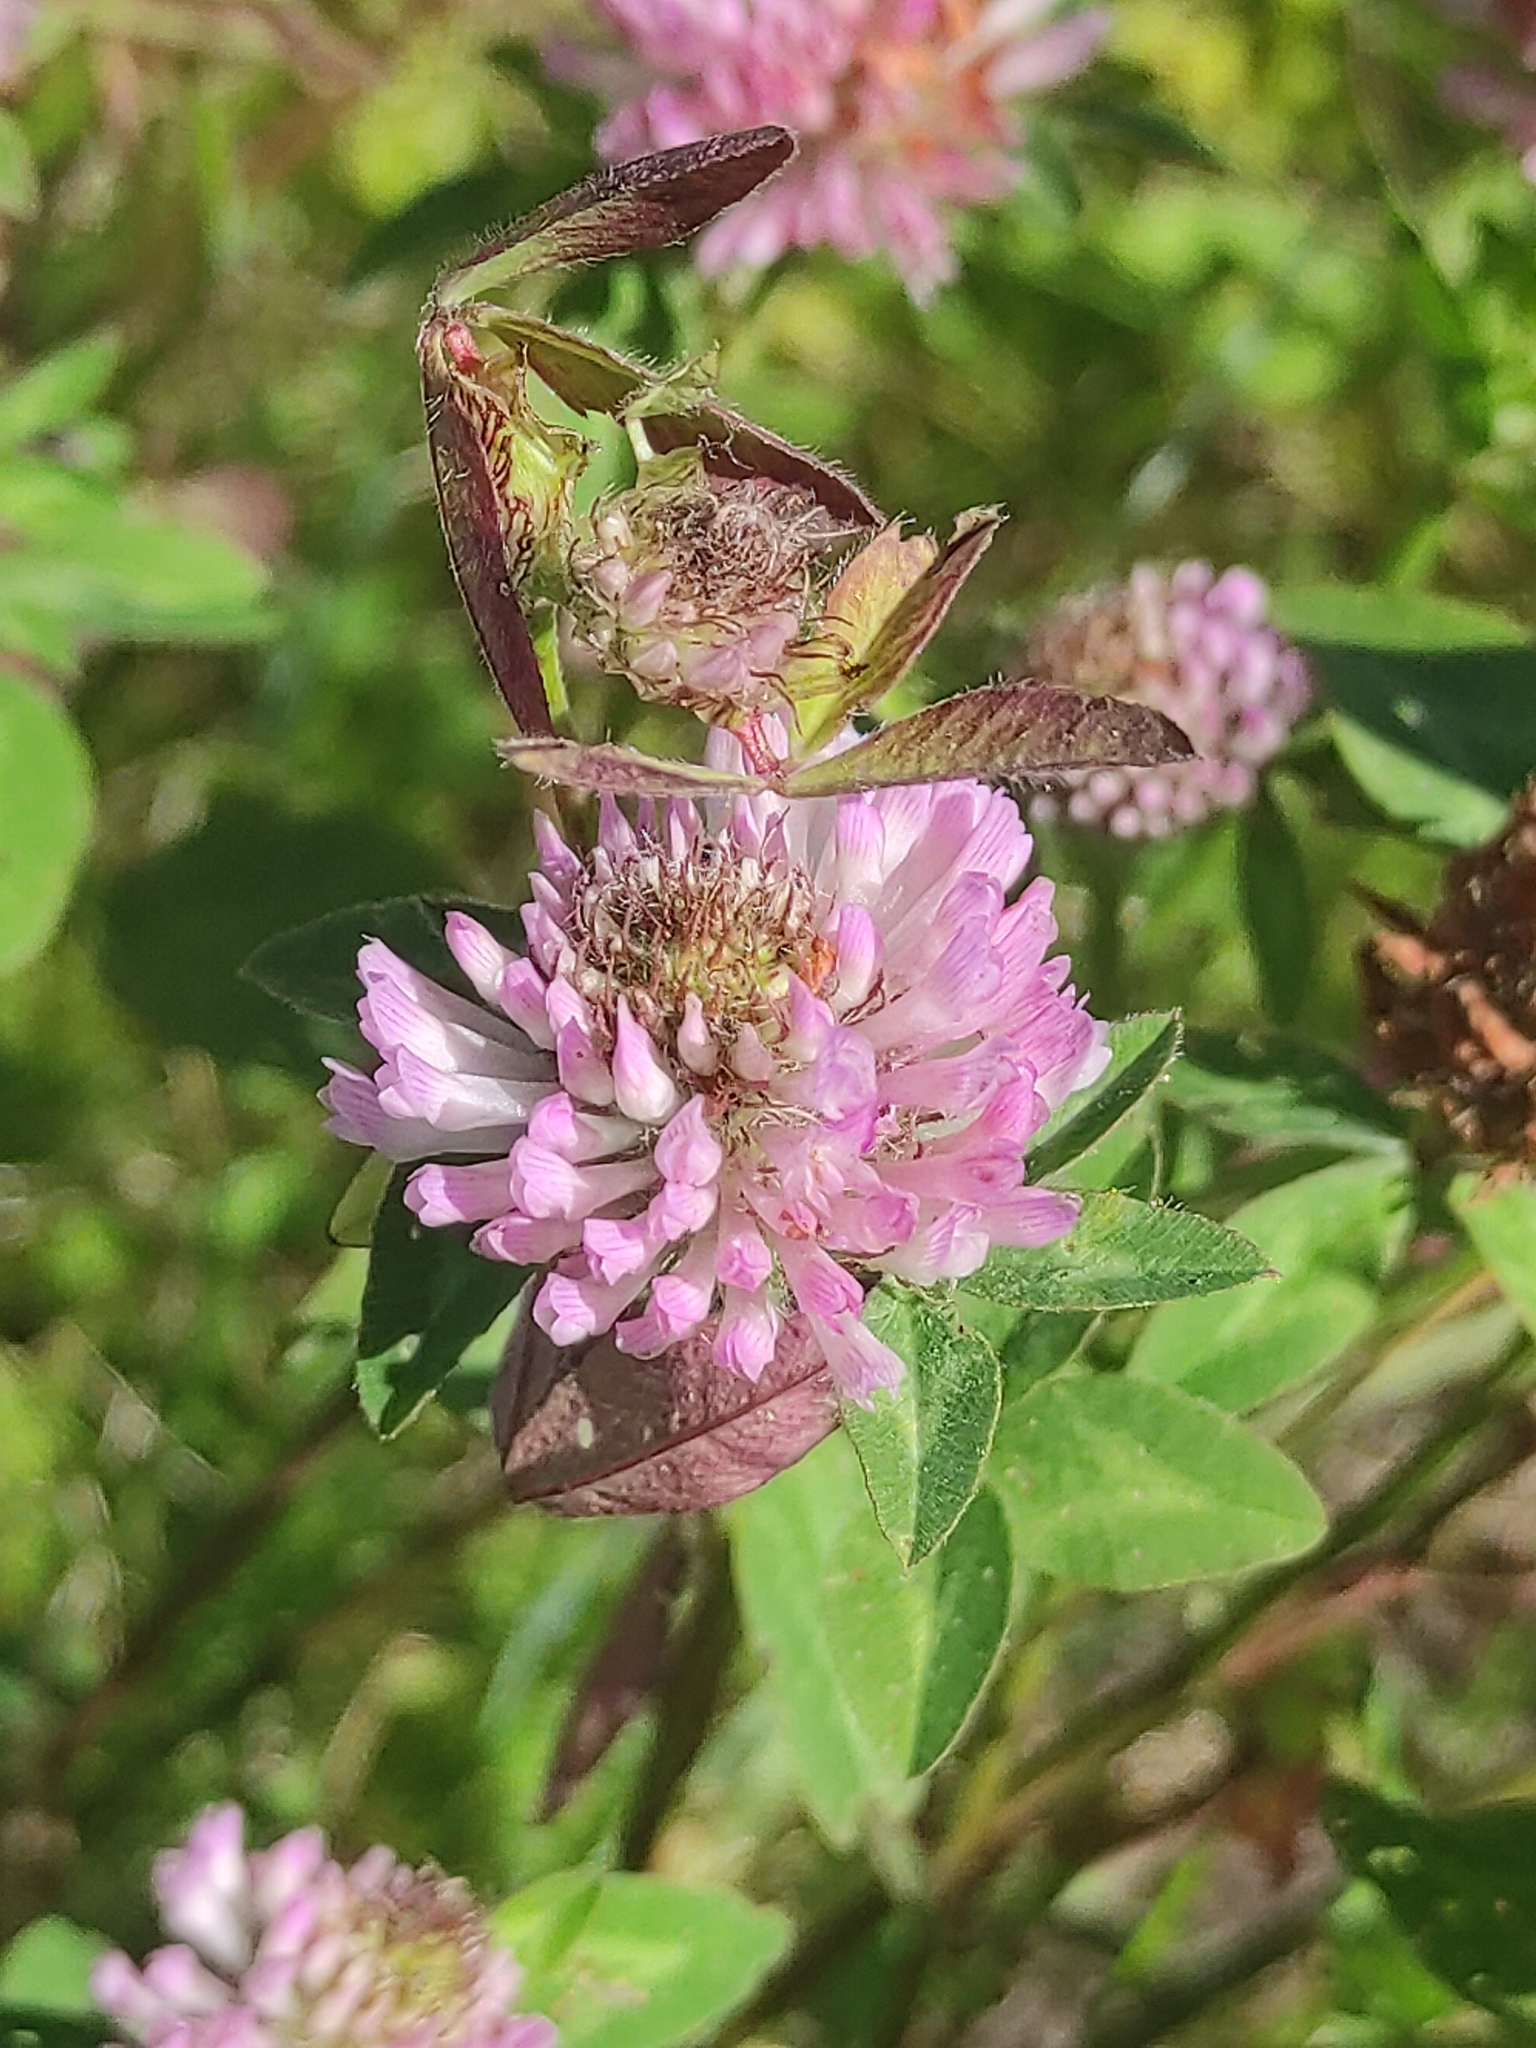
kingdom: Plantae
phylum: Tracheophyta
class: Magnoliopsida
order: Fabales
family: Fabaceae
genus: Trifolium
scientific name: Trifolium pratense
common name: Red clover
